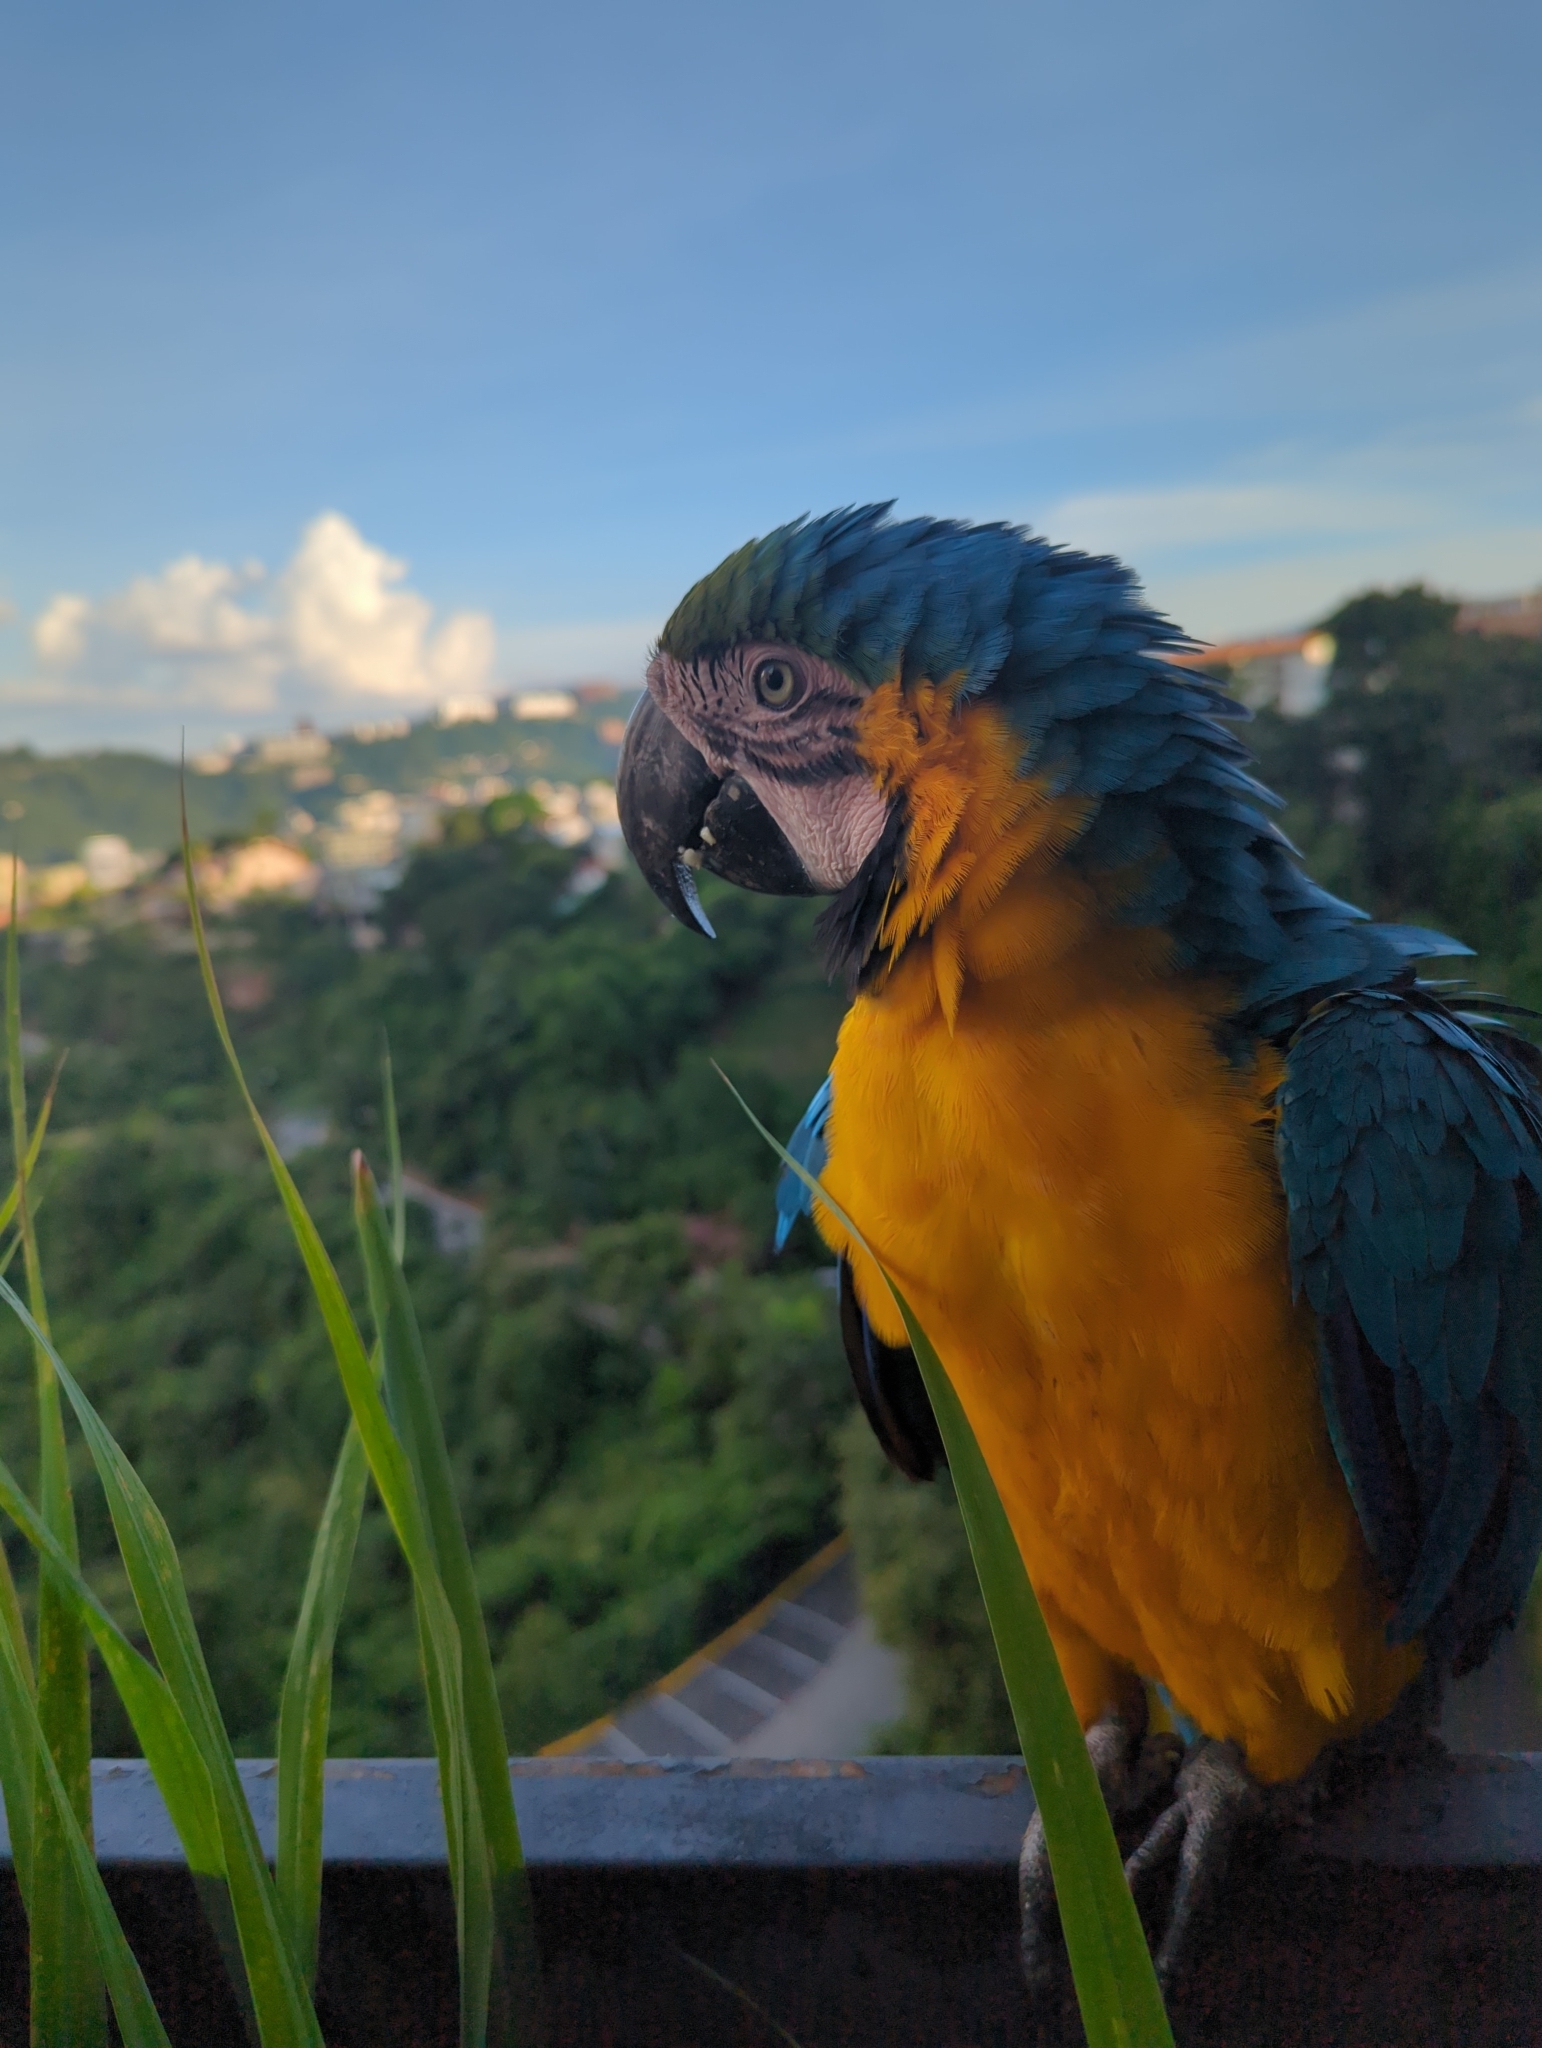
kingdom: Animalia
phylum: Chordata
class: Aves
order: Psittaciformes
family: Psittacidae
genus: Ara
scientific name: Ara ararauna
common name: Blue-and-yellow macaw
